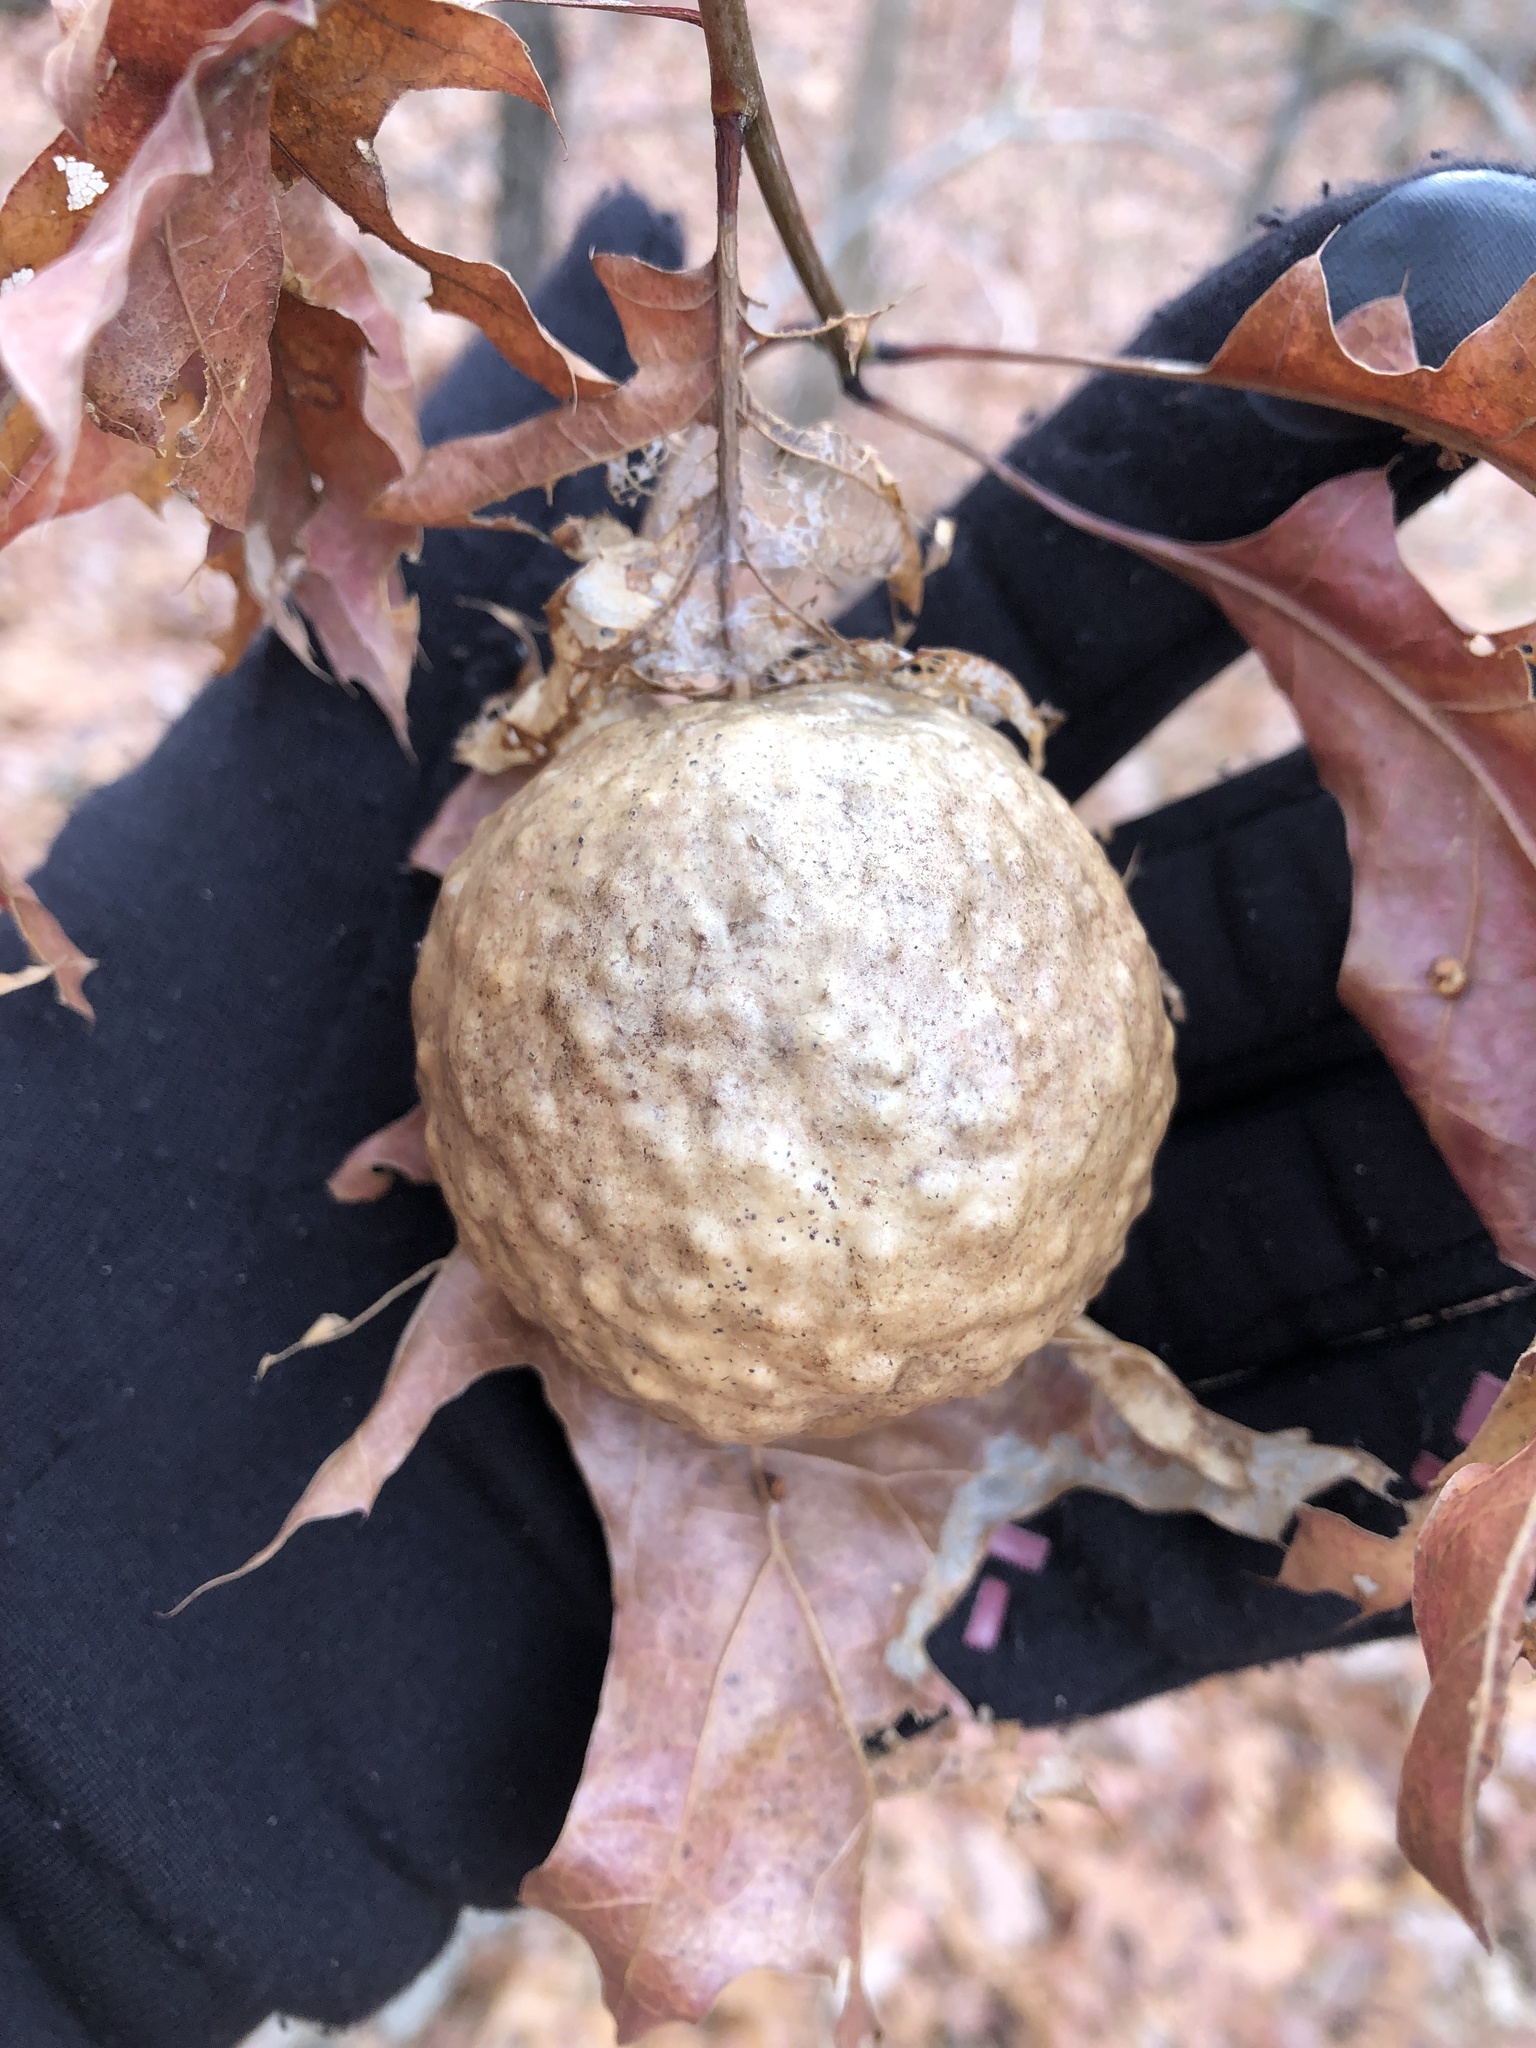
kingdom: Animalia
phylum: Arthropoda
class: Insecta
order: Hymenoptera
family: Cynipidae
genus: Amphibolips
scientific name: Amphibolips
